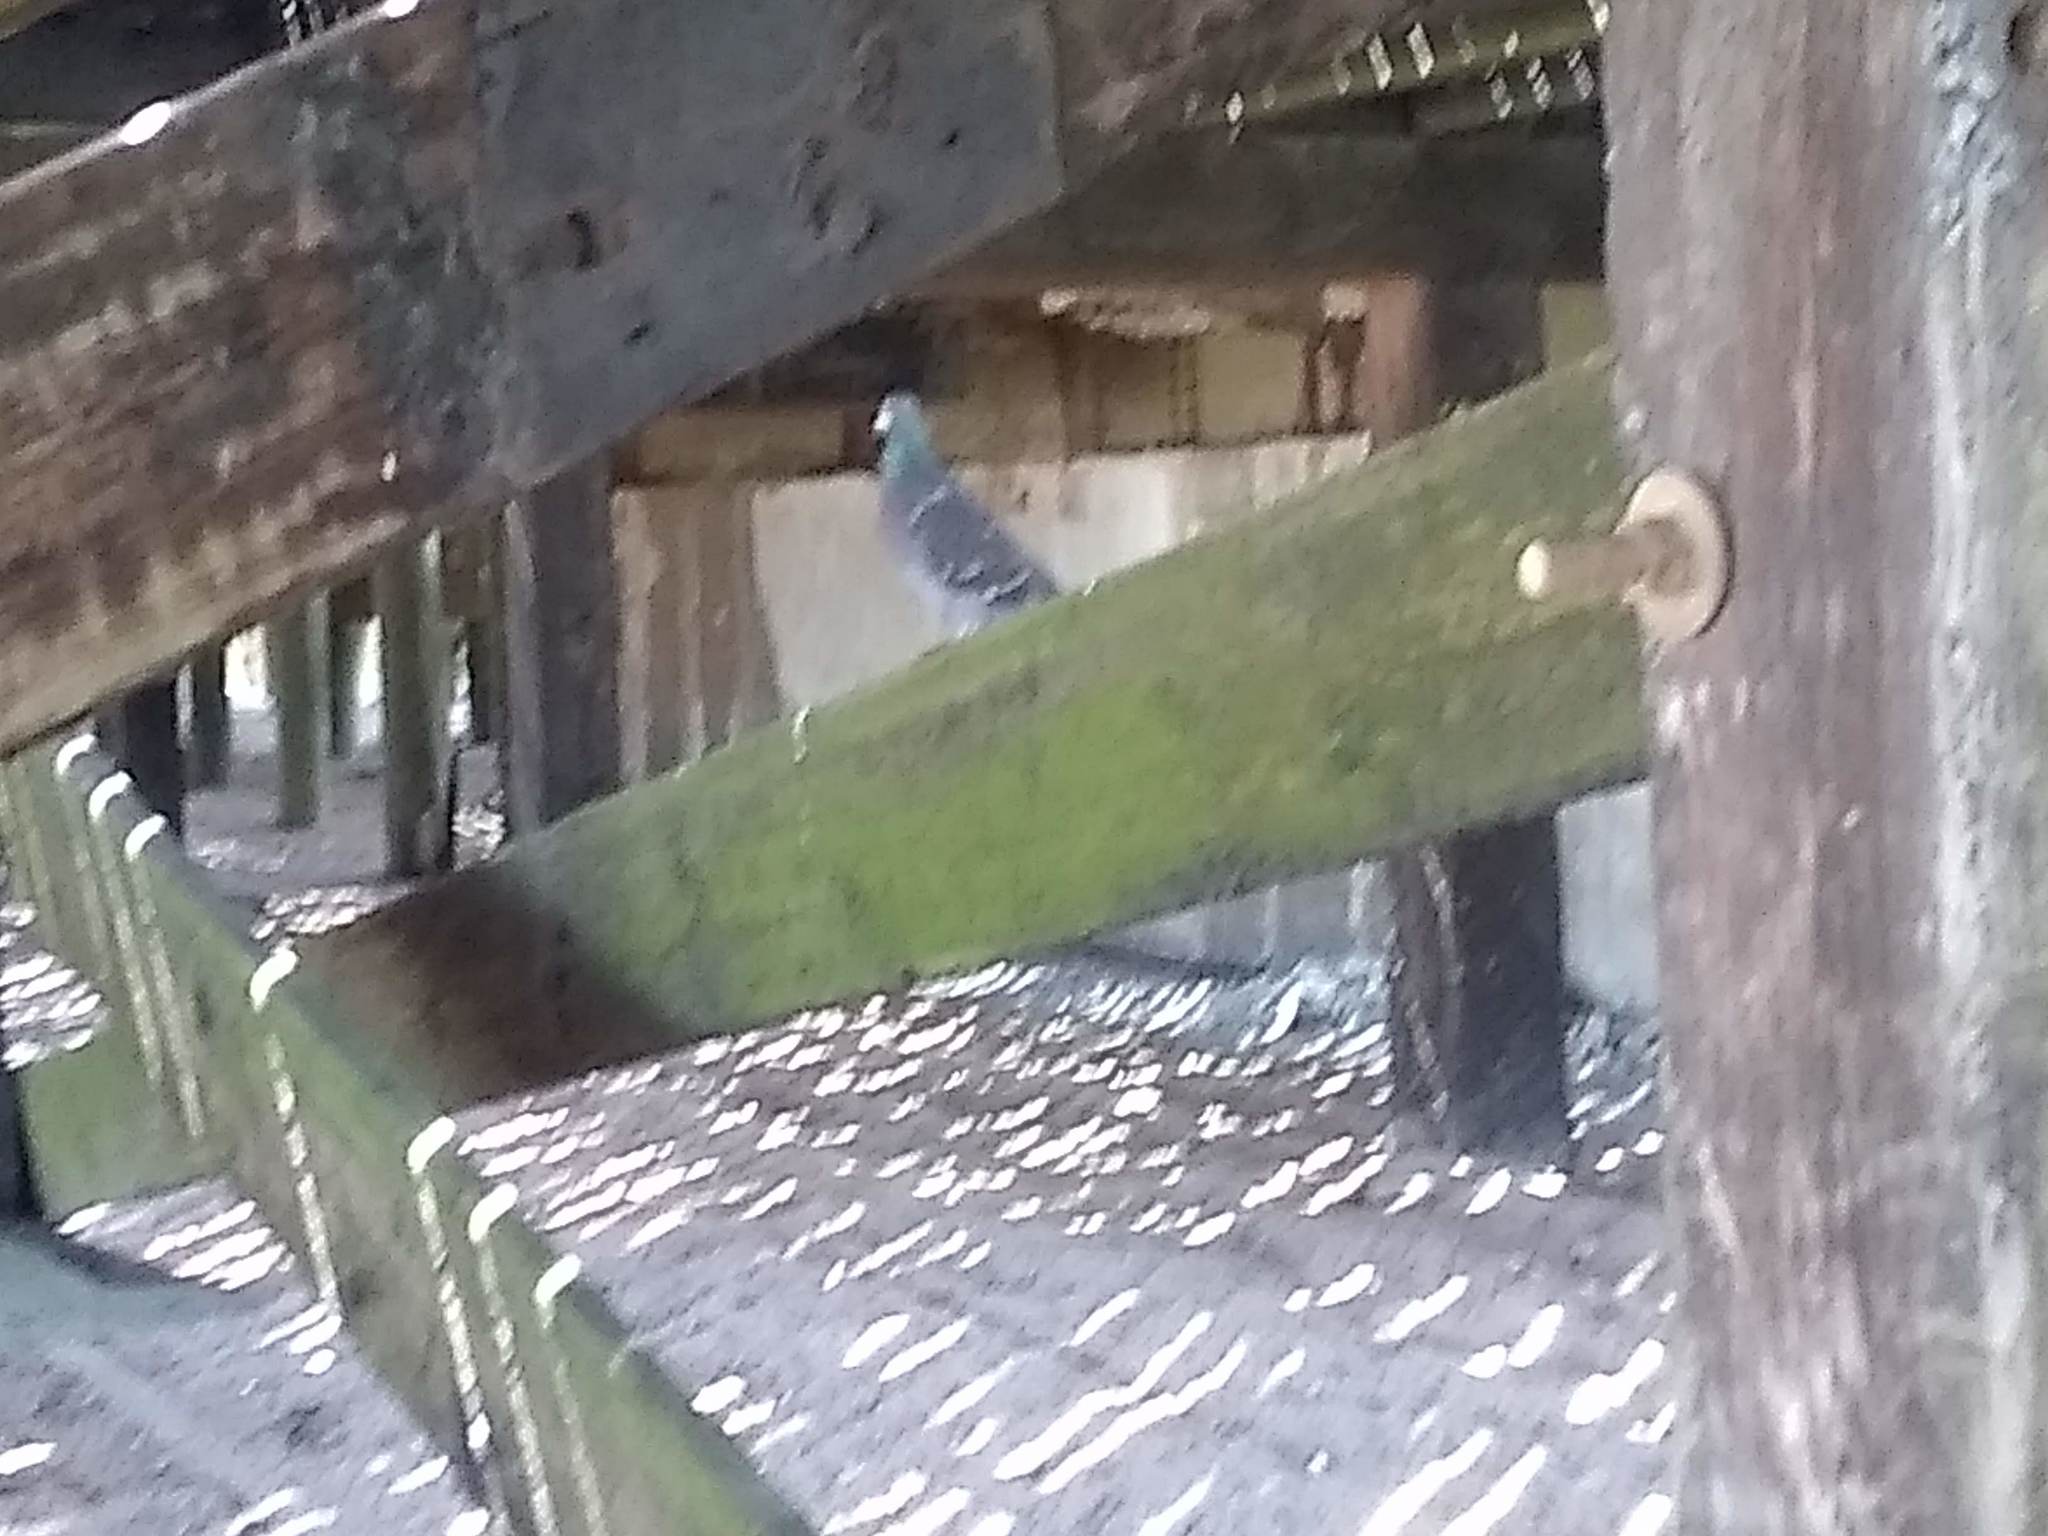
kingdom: Animalia
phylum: Chordata
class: Aves
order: Columbiformes
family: Columbidae
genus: Columba
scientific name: Columba livia
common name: Rock pigeon
